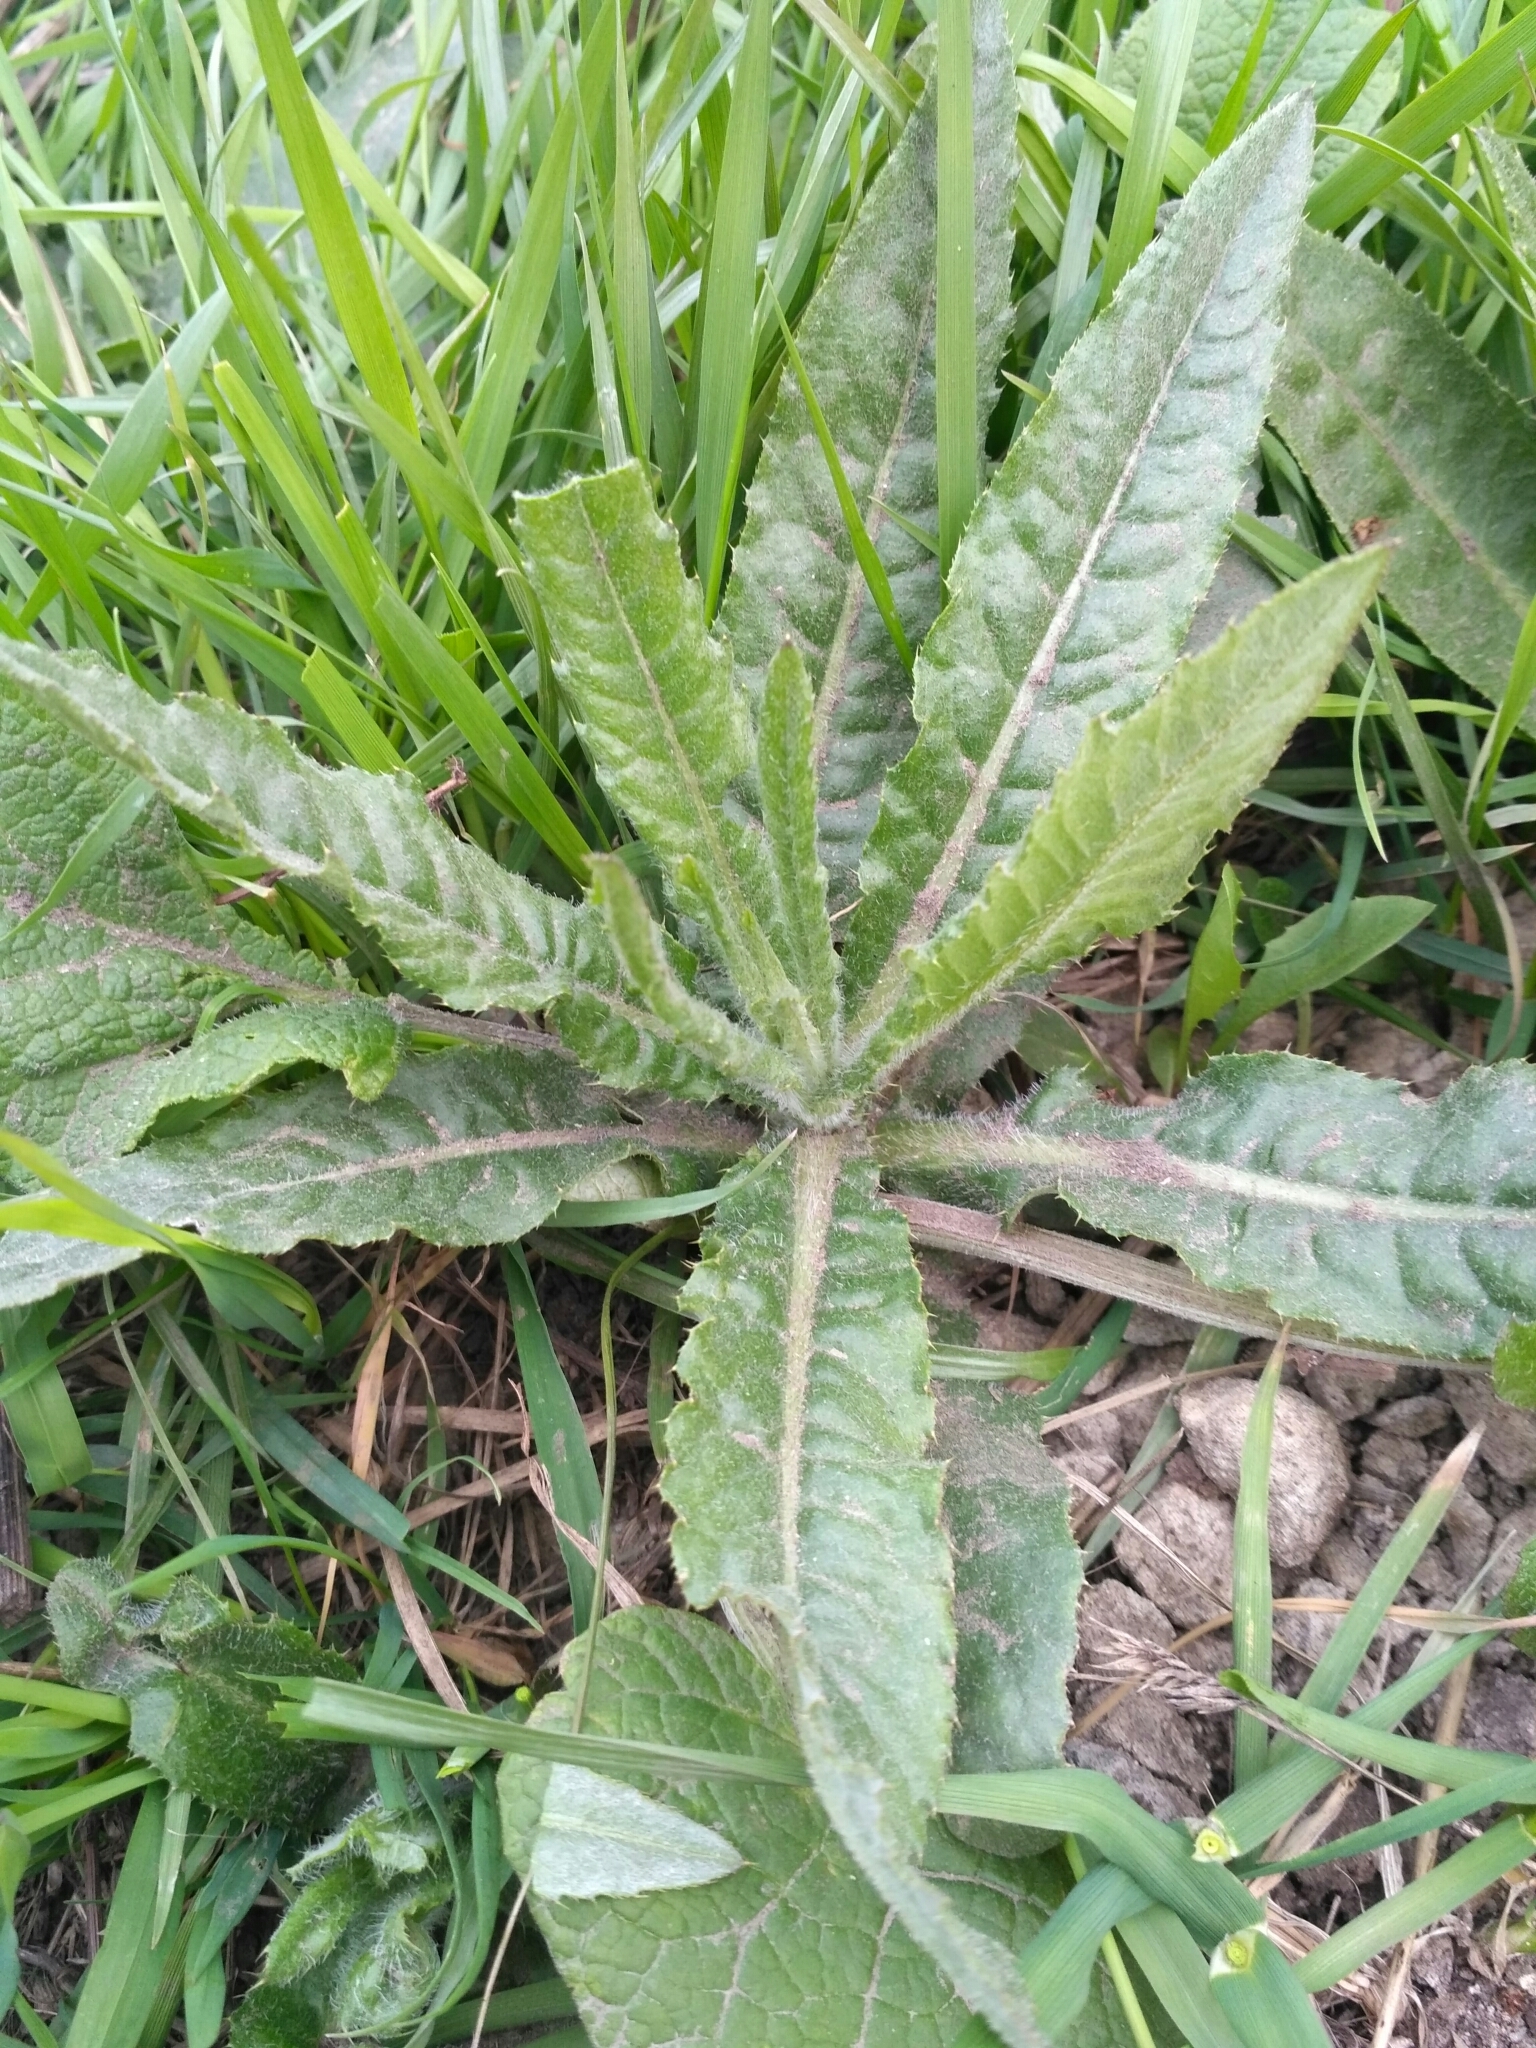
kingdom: Plantae
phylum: Tracheophyta
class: Magnoliopsida
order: Asterales
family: Asteraceae
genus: Cirsium
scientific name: Cirsium arvense
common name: Creeping thistle
